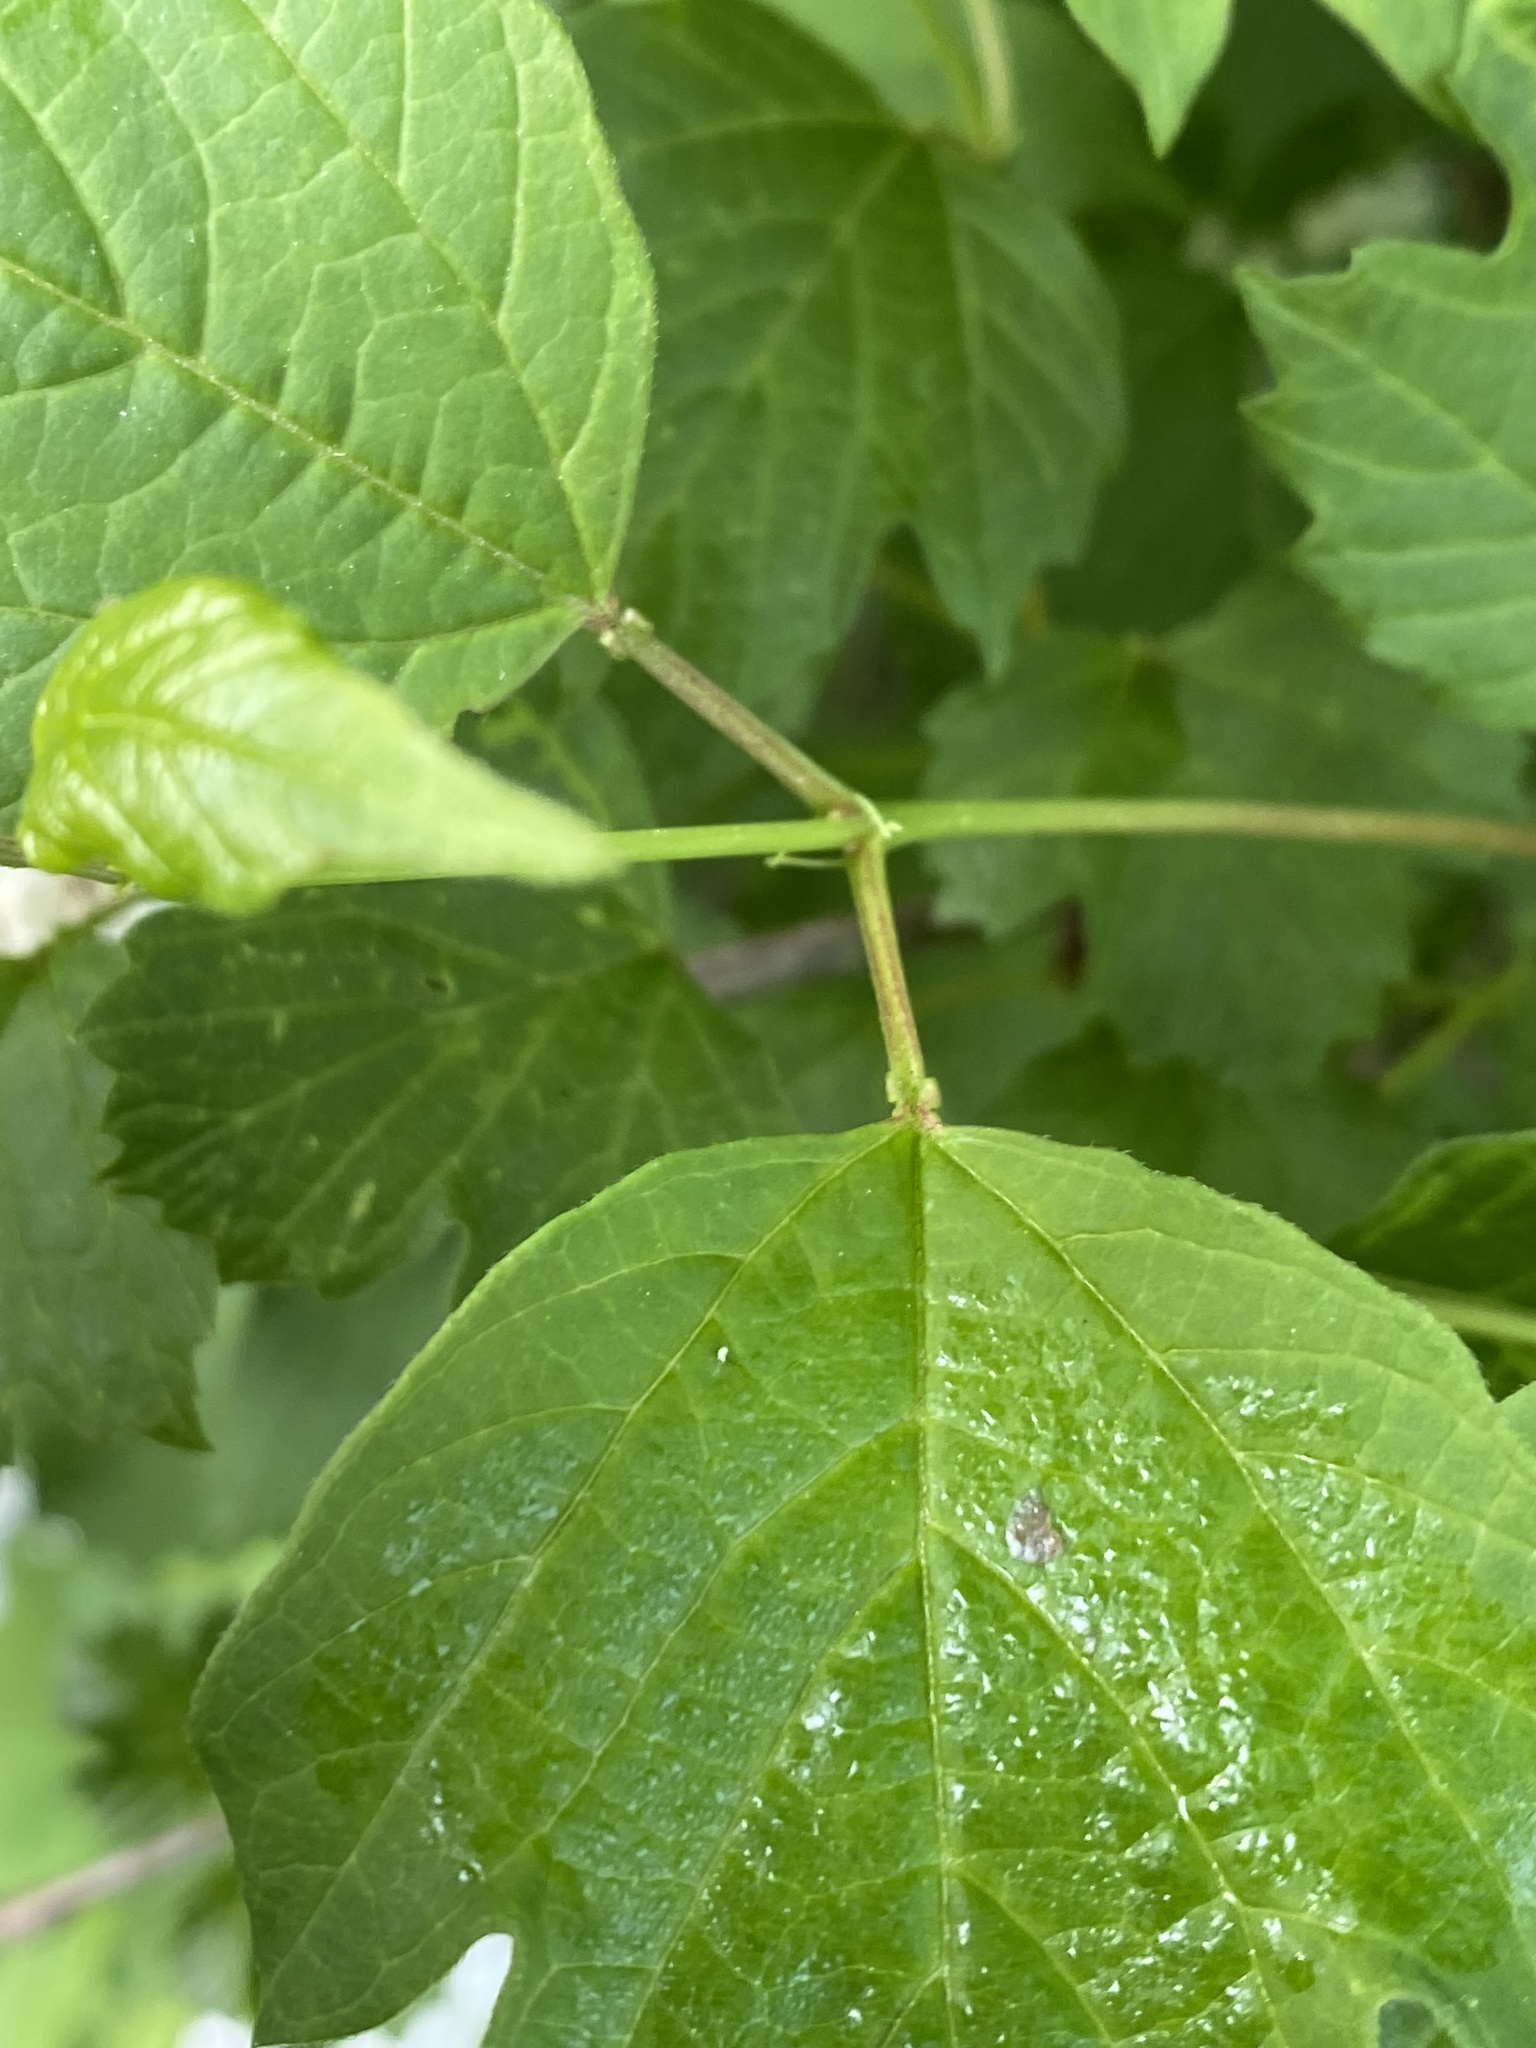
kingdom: Plantae
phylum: Tracheophyta
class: Magnoliopsida
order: Dipsacales
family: Viburnaceae
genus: Viburnum
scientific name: Viburnum opulus
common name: Guelder-rose
